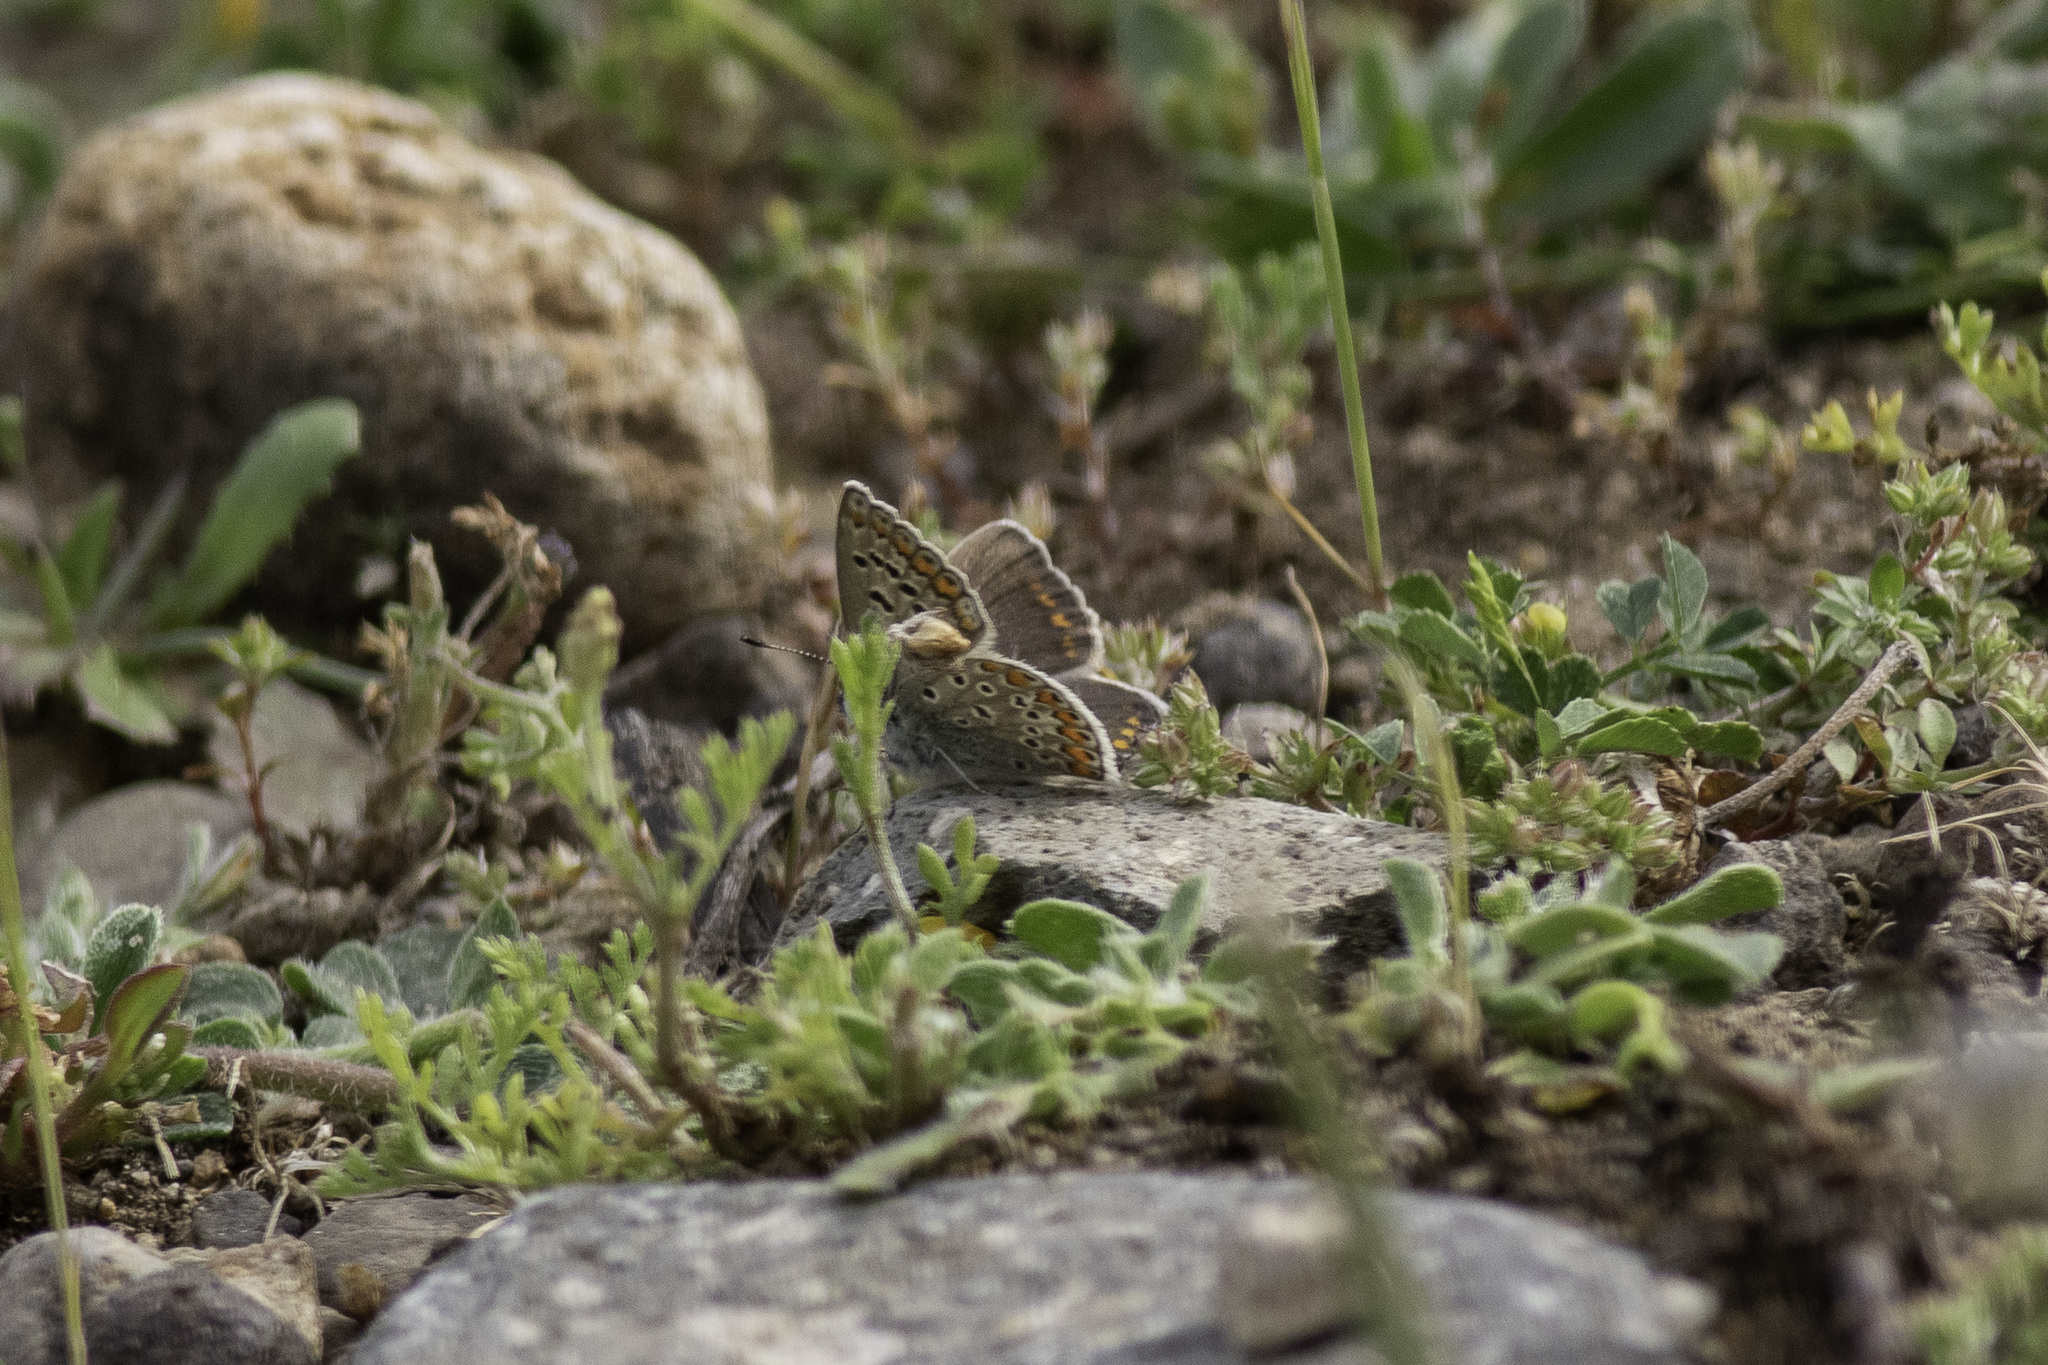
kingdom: Animalia
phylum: Arthropoda
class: Insecta
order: Lepidoptera
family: Lycaenidae
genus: Polyommatus
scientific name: Polyommatus icarus
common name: Common blue
